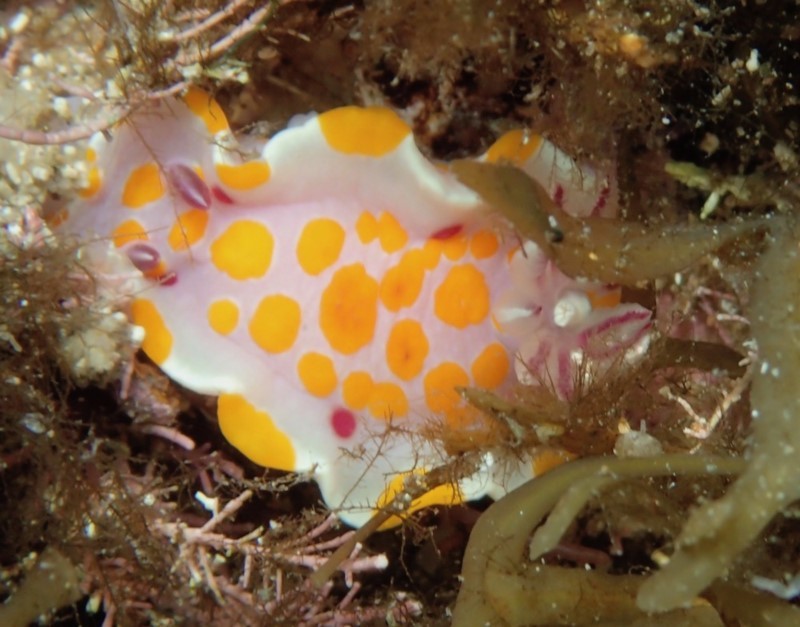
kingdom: Animalia
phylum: Mollusca
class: Gastropoda
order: Nudibranchia
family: Chromodorididae
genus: Ceratosoma
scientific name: Ceratosoma amoenum
